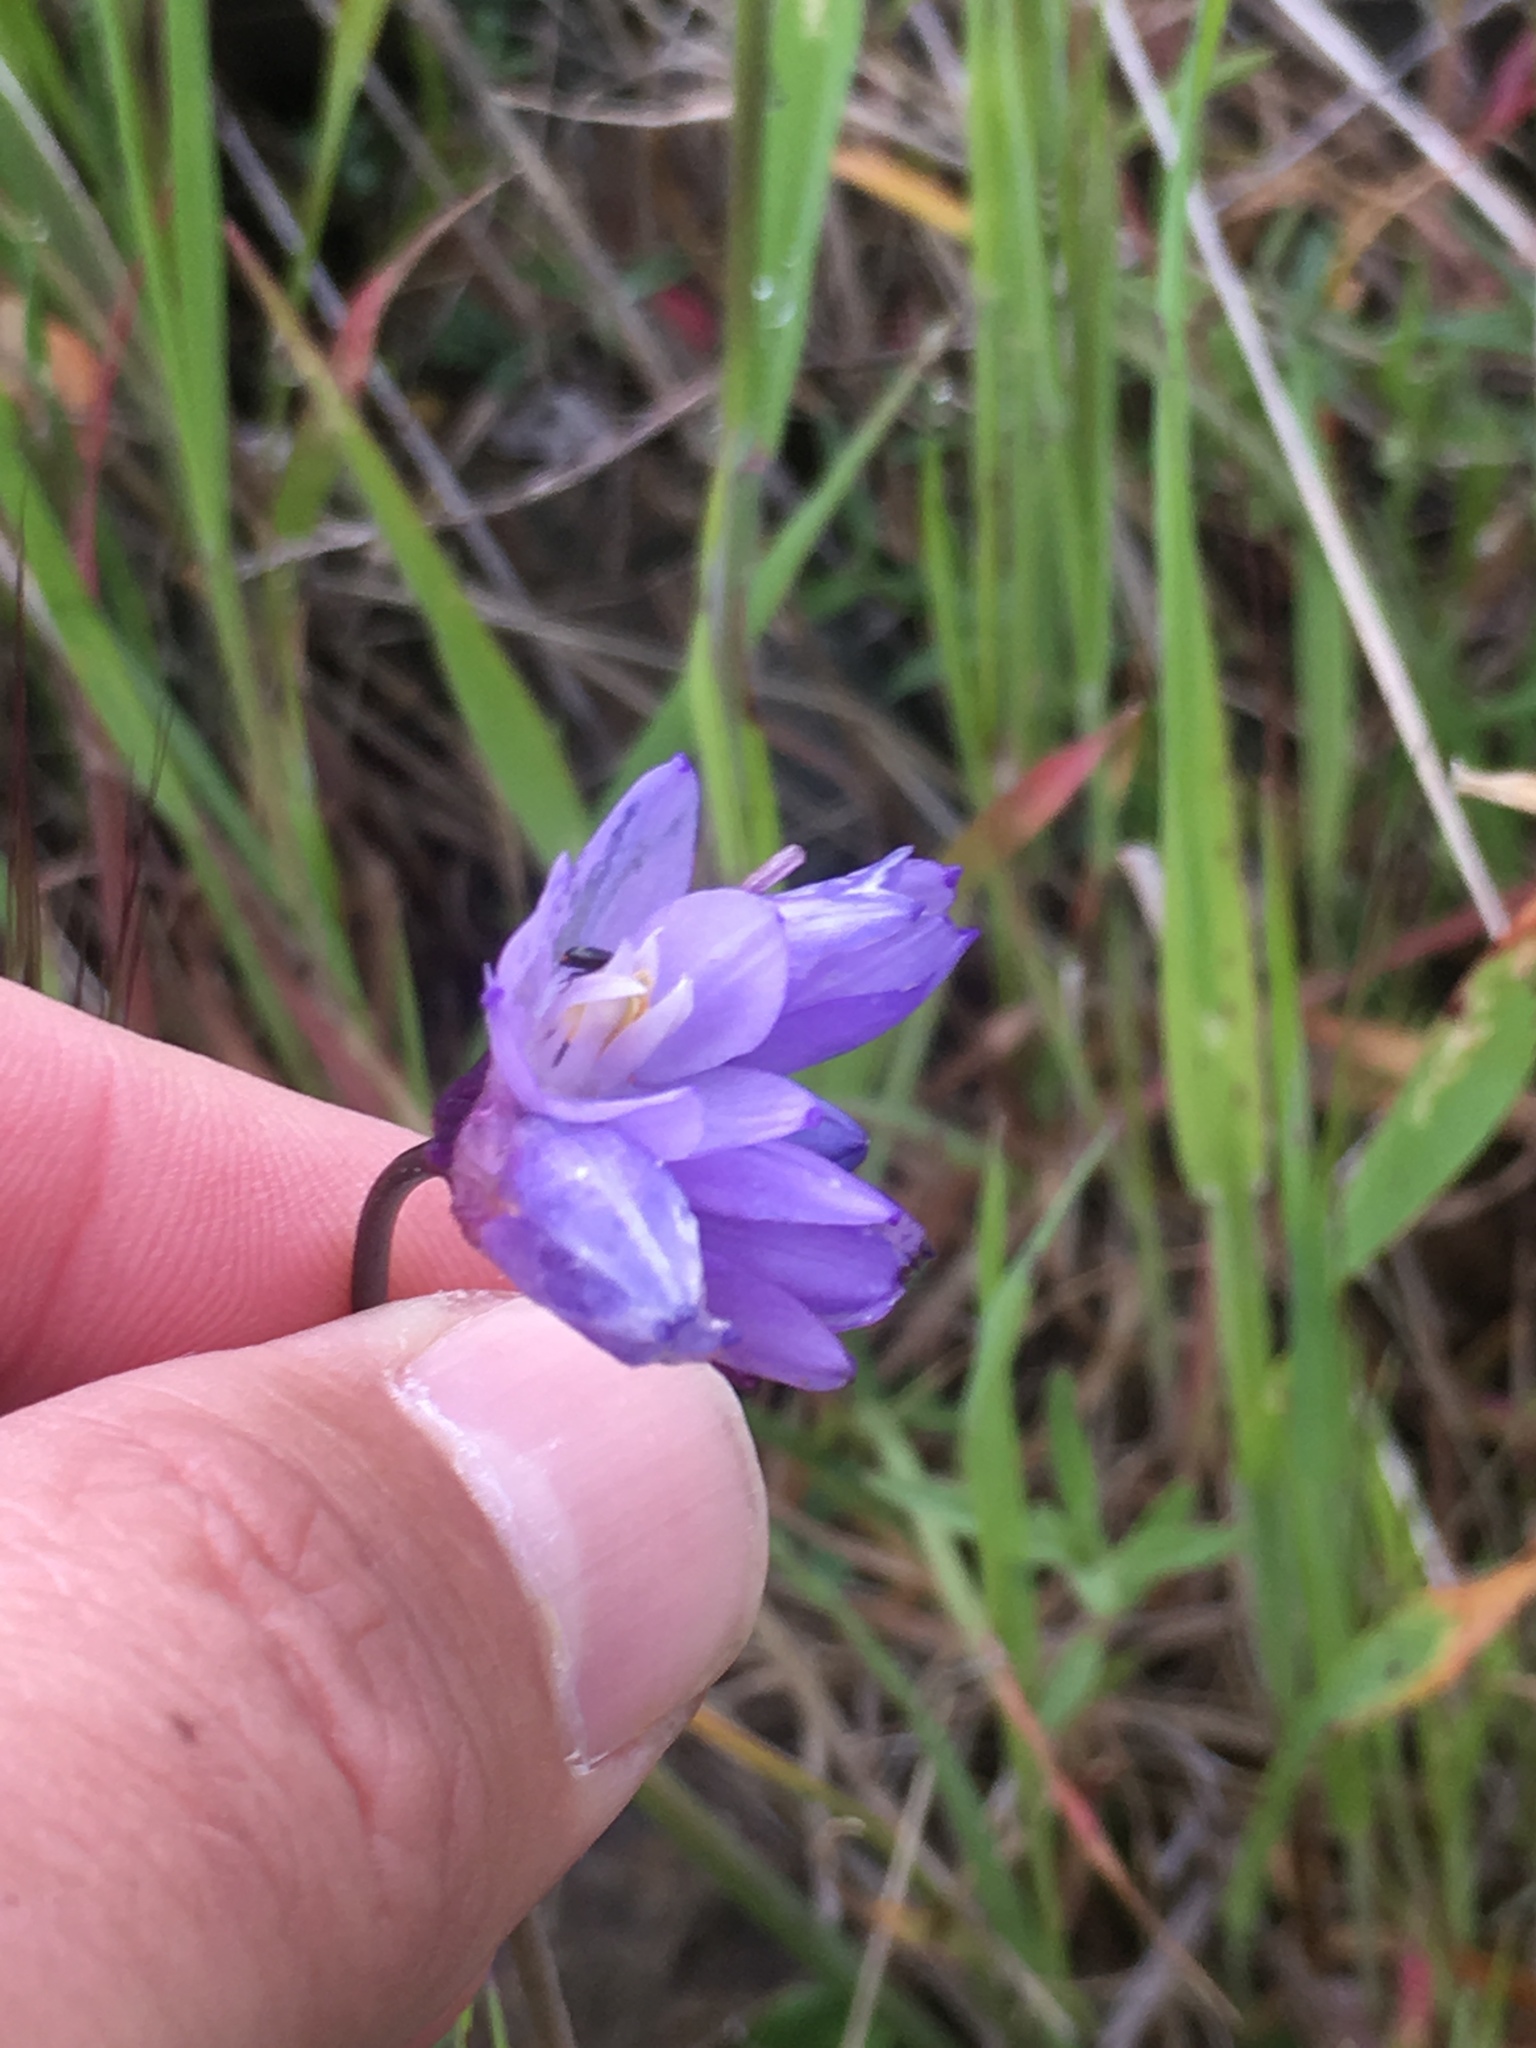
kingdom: Plantae
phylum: Tracheophyta
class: Liliopsida
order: Asparagales
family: Asparagaceae
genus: Dipterostemon
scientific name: Dipterostemon capitatus
